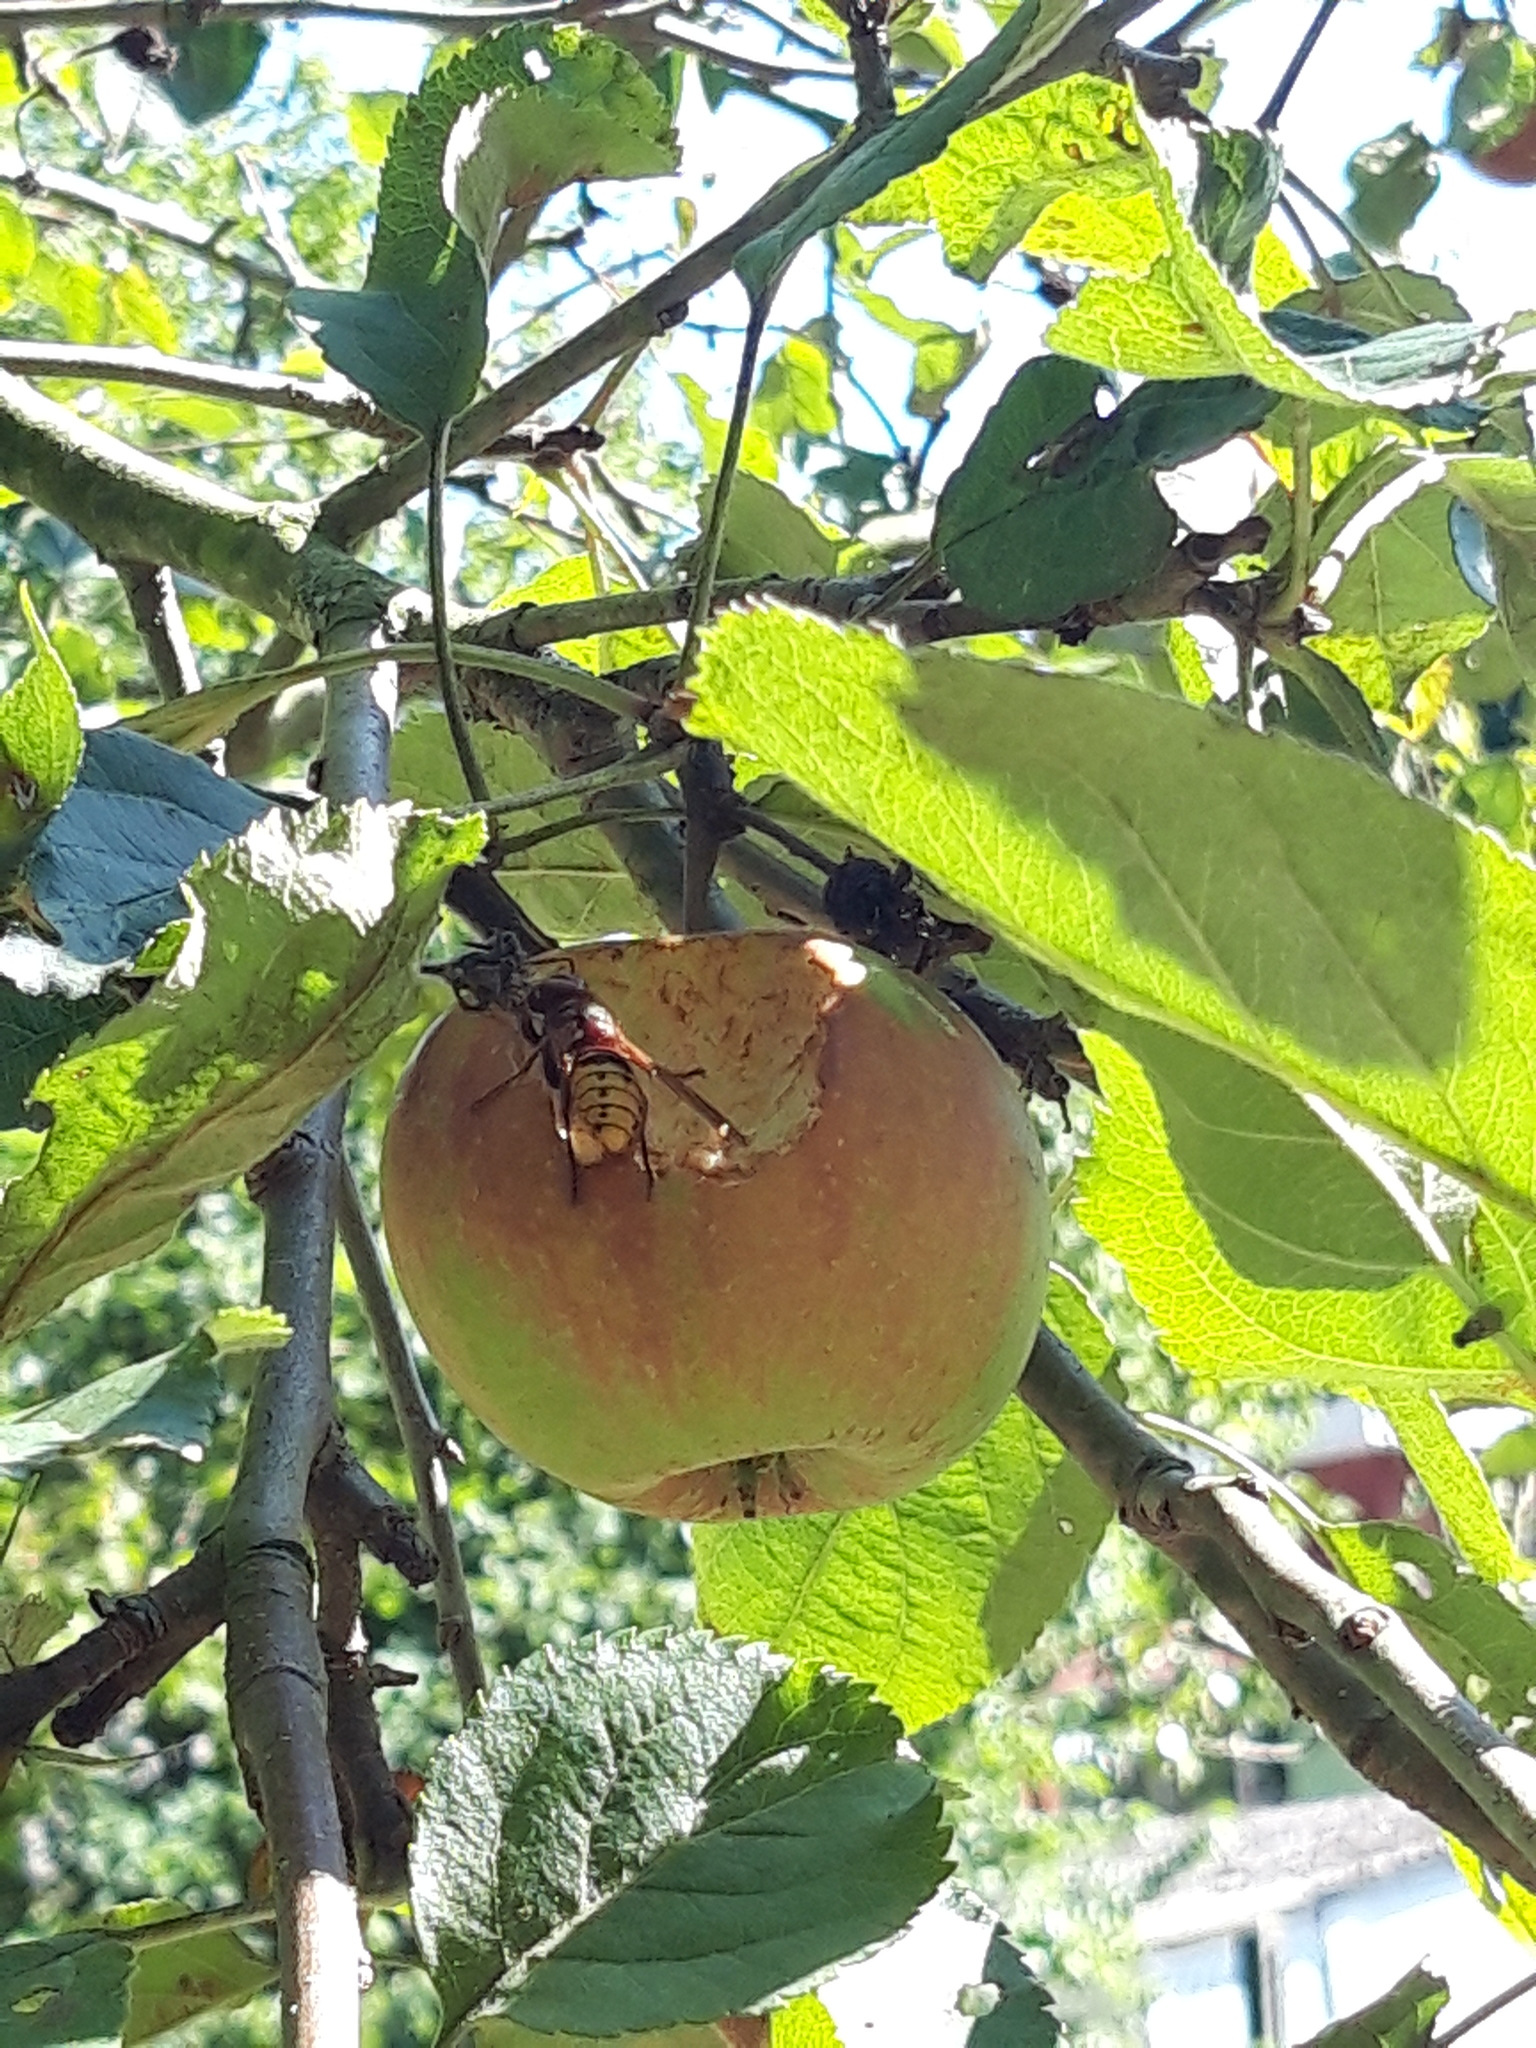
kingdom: Animalia
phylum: Arthropoda
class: Insecta
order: Hymenoptera
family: Vespidae
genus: Vespa
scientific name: Vespa crabro
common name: Hornet
